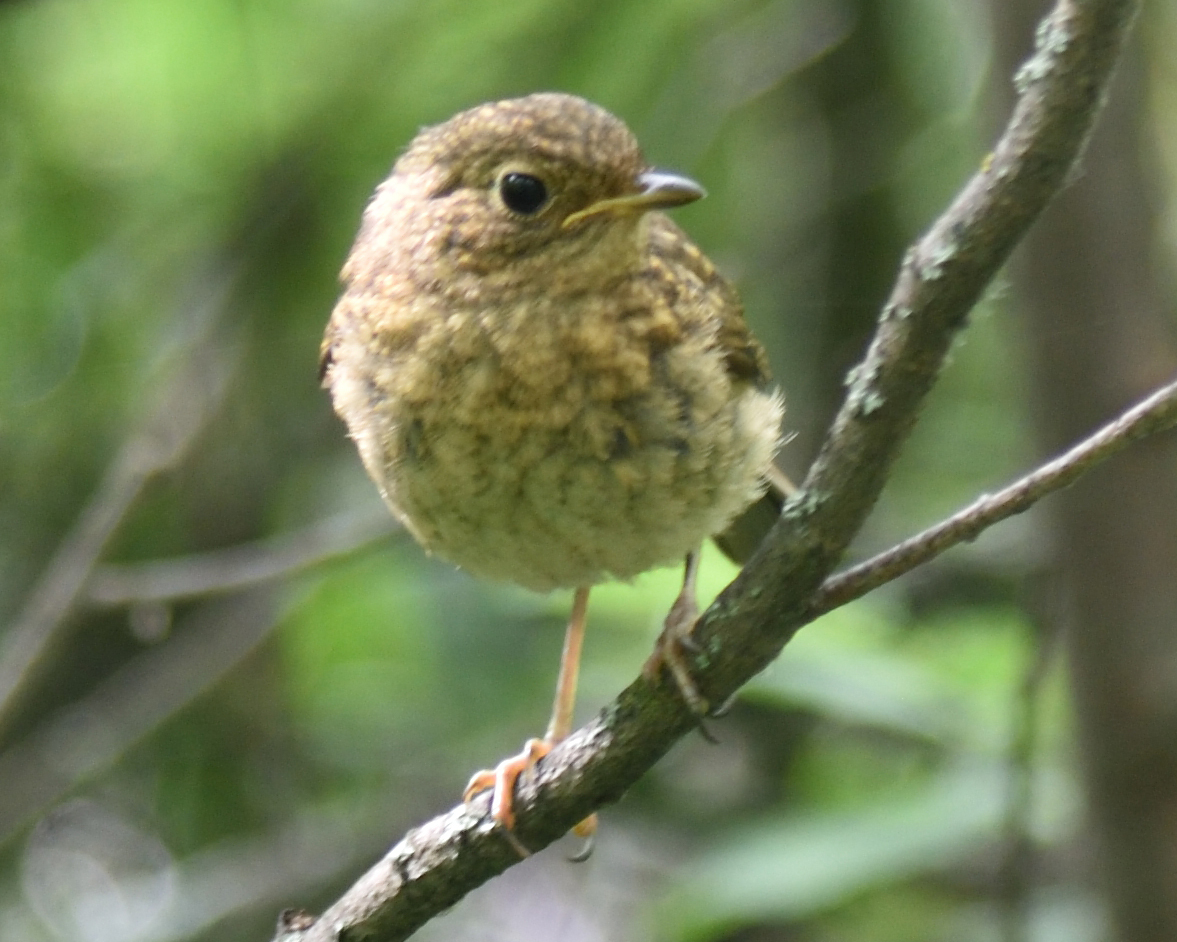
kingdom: Animalia
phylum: Chordata
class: Aves
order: Passeriformes
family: Muscicapidae
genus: Erithacus
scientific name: Erithacus rubecula
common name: European robin
